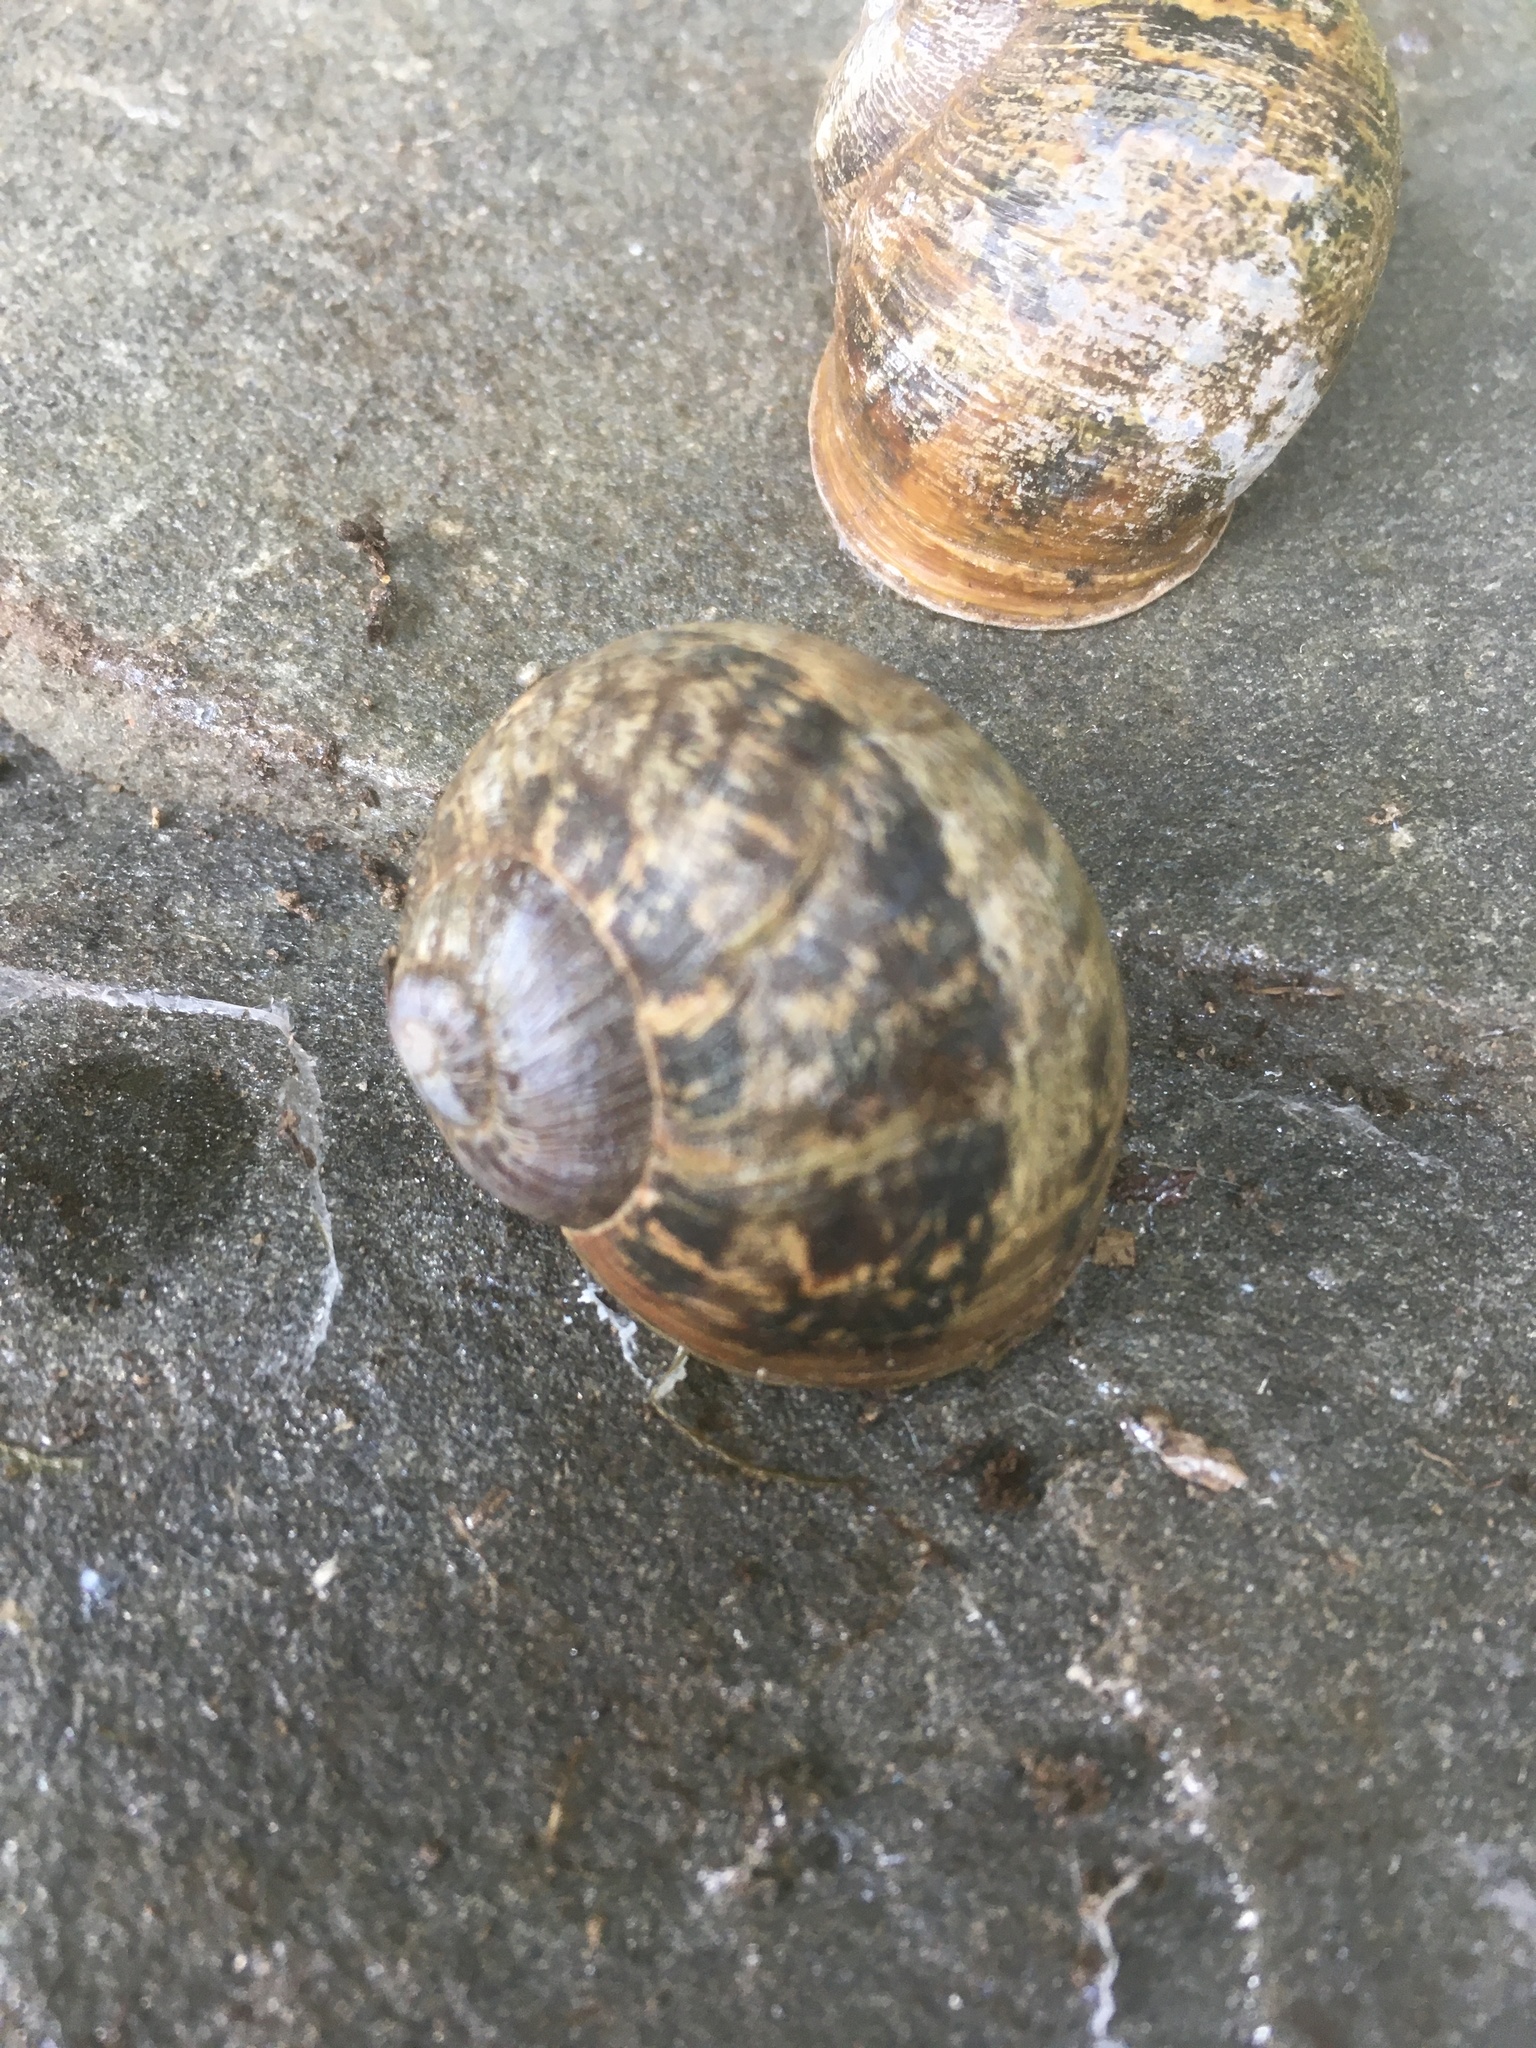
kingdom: Animalia
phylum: Mollusca
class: Gastropoda
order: Stylommatophora
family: Helicidae
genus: Cornu
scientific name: Cornu aspersum
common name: Brown garden snail
